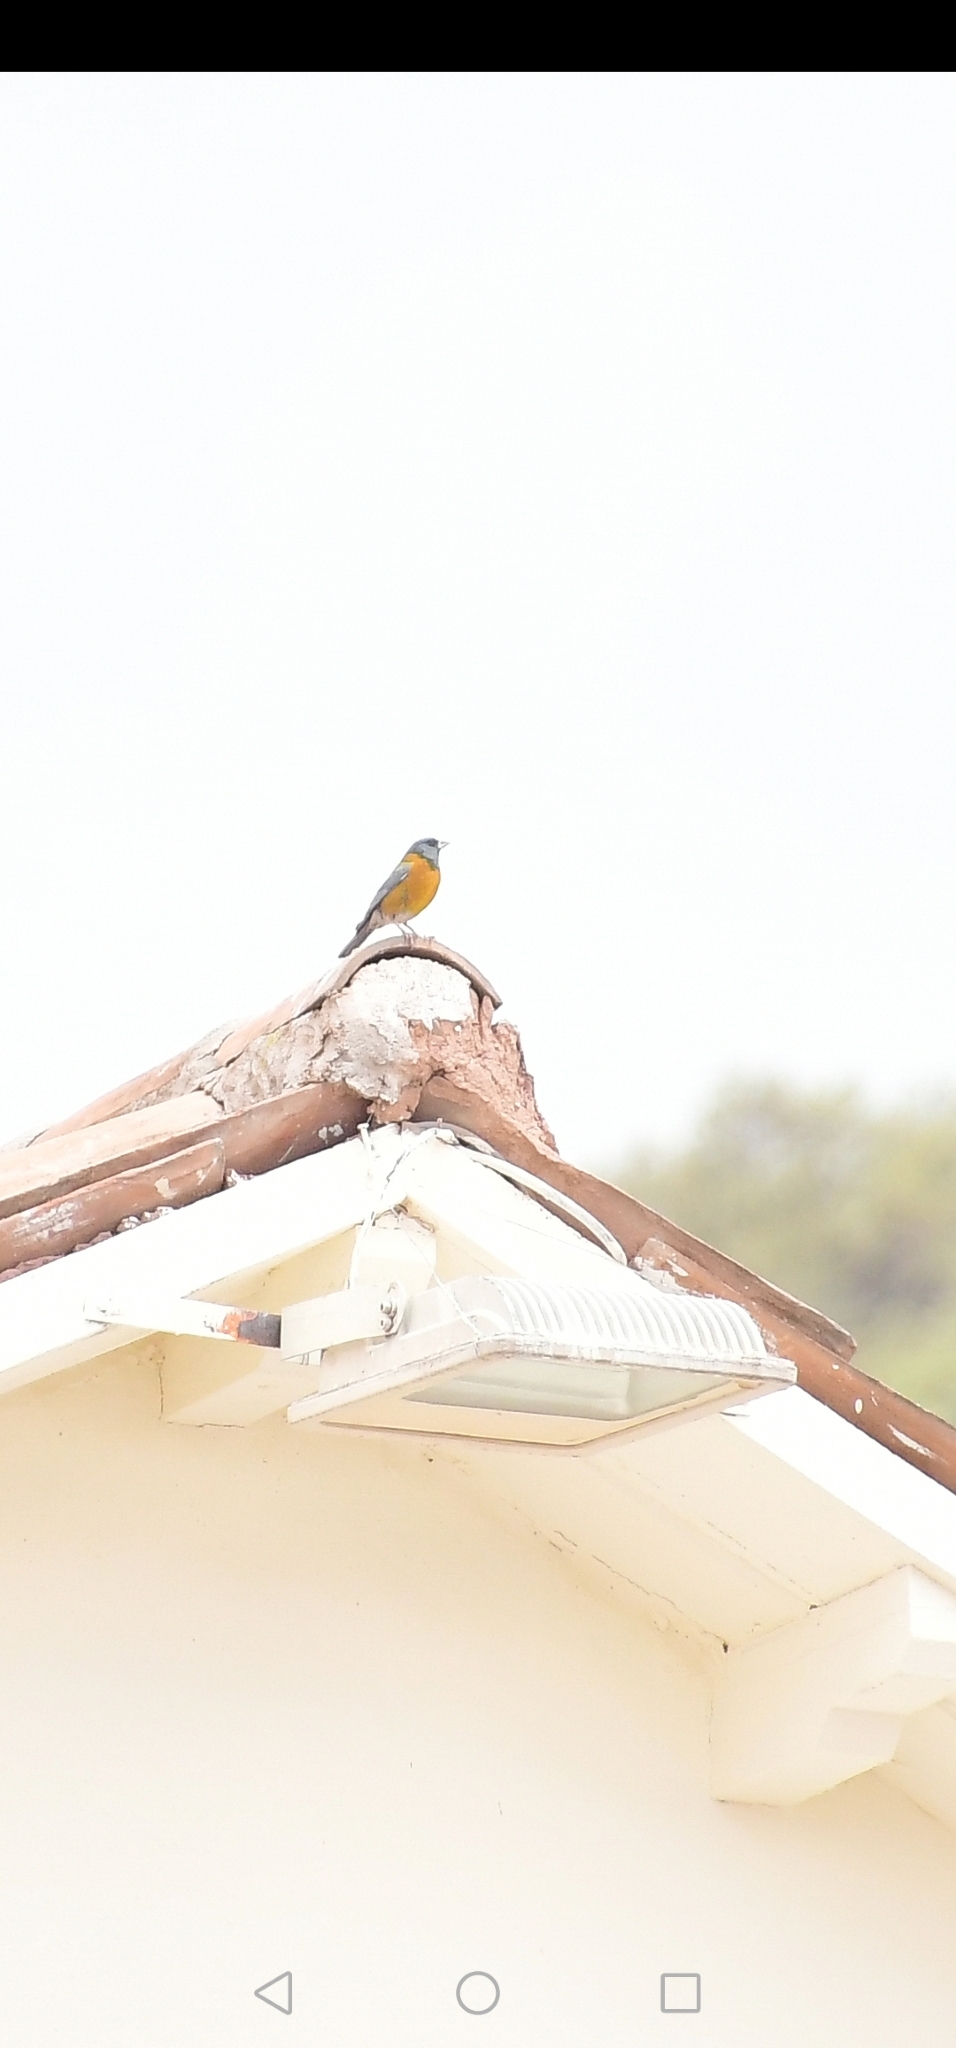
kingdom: Animalia
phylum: Chordata
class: Aves
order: Passeriformes
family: Thraupidae
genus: Phrygilus
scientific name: Phrygilus punensis
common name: Peruvian sierra finch
